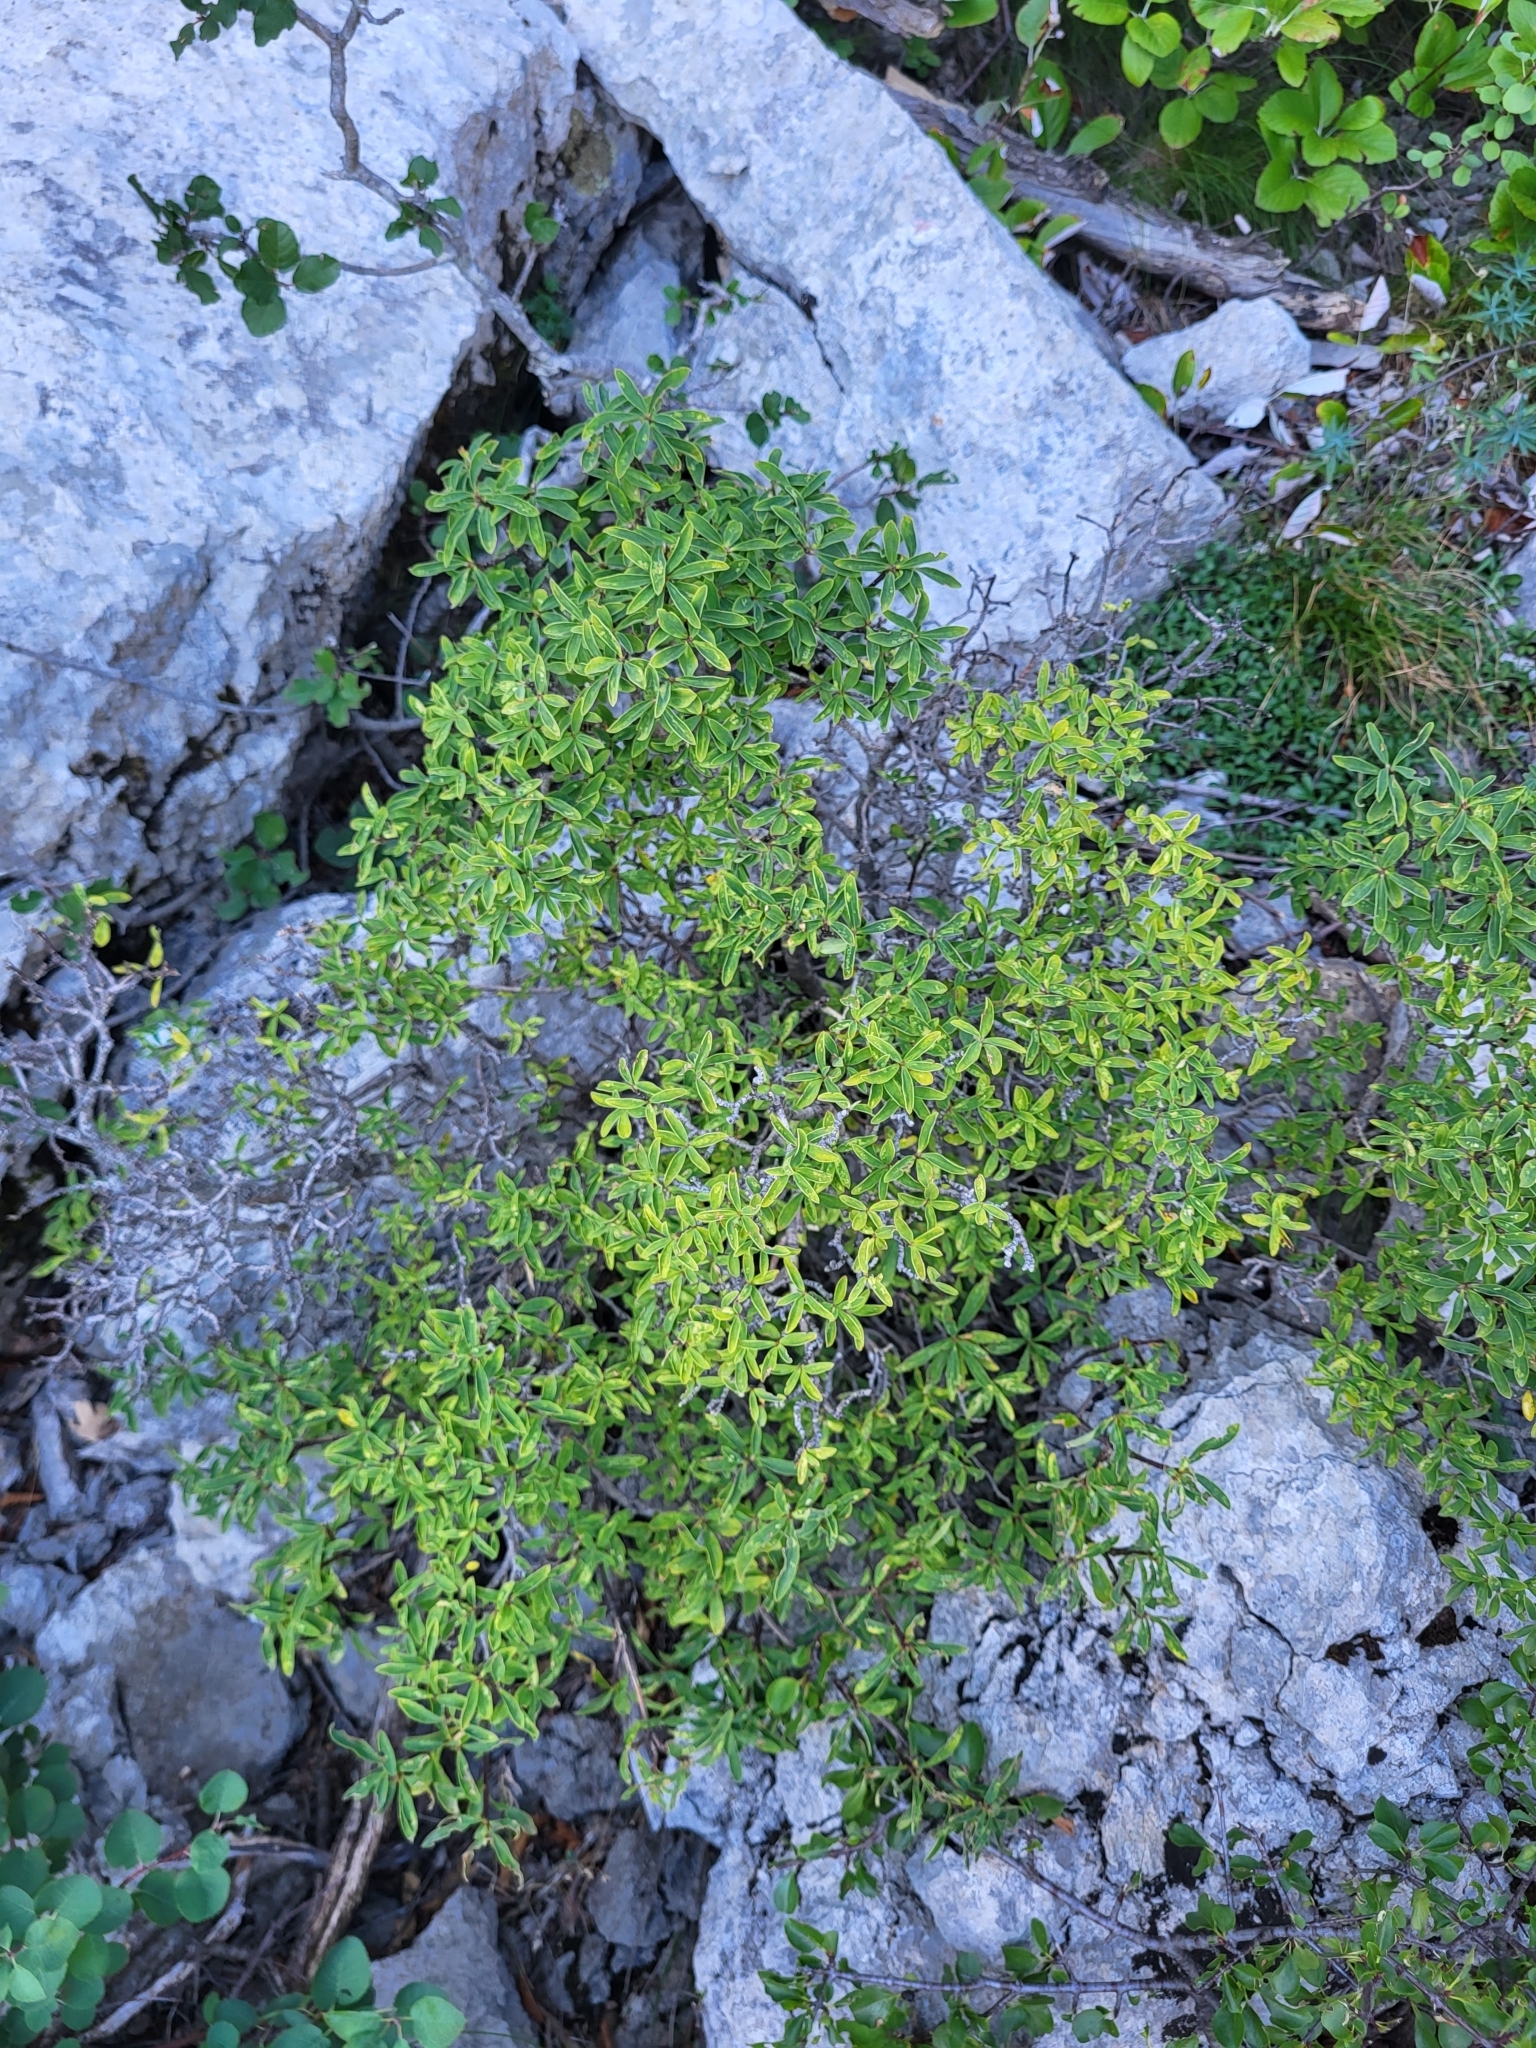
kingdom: Plantae
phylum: Tracheophyta
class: Magnoliopsida
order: Malvales
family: Thymelaeaceae
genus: Daphne
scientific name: Daphne alpina
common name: Alpine daphne
